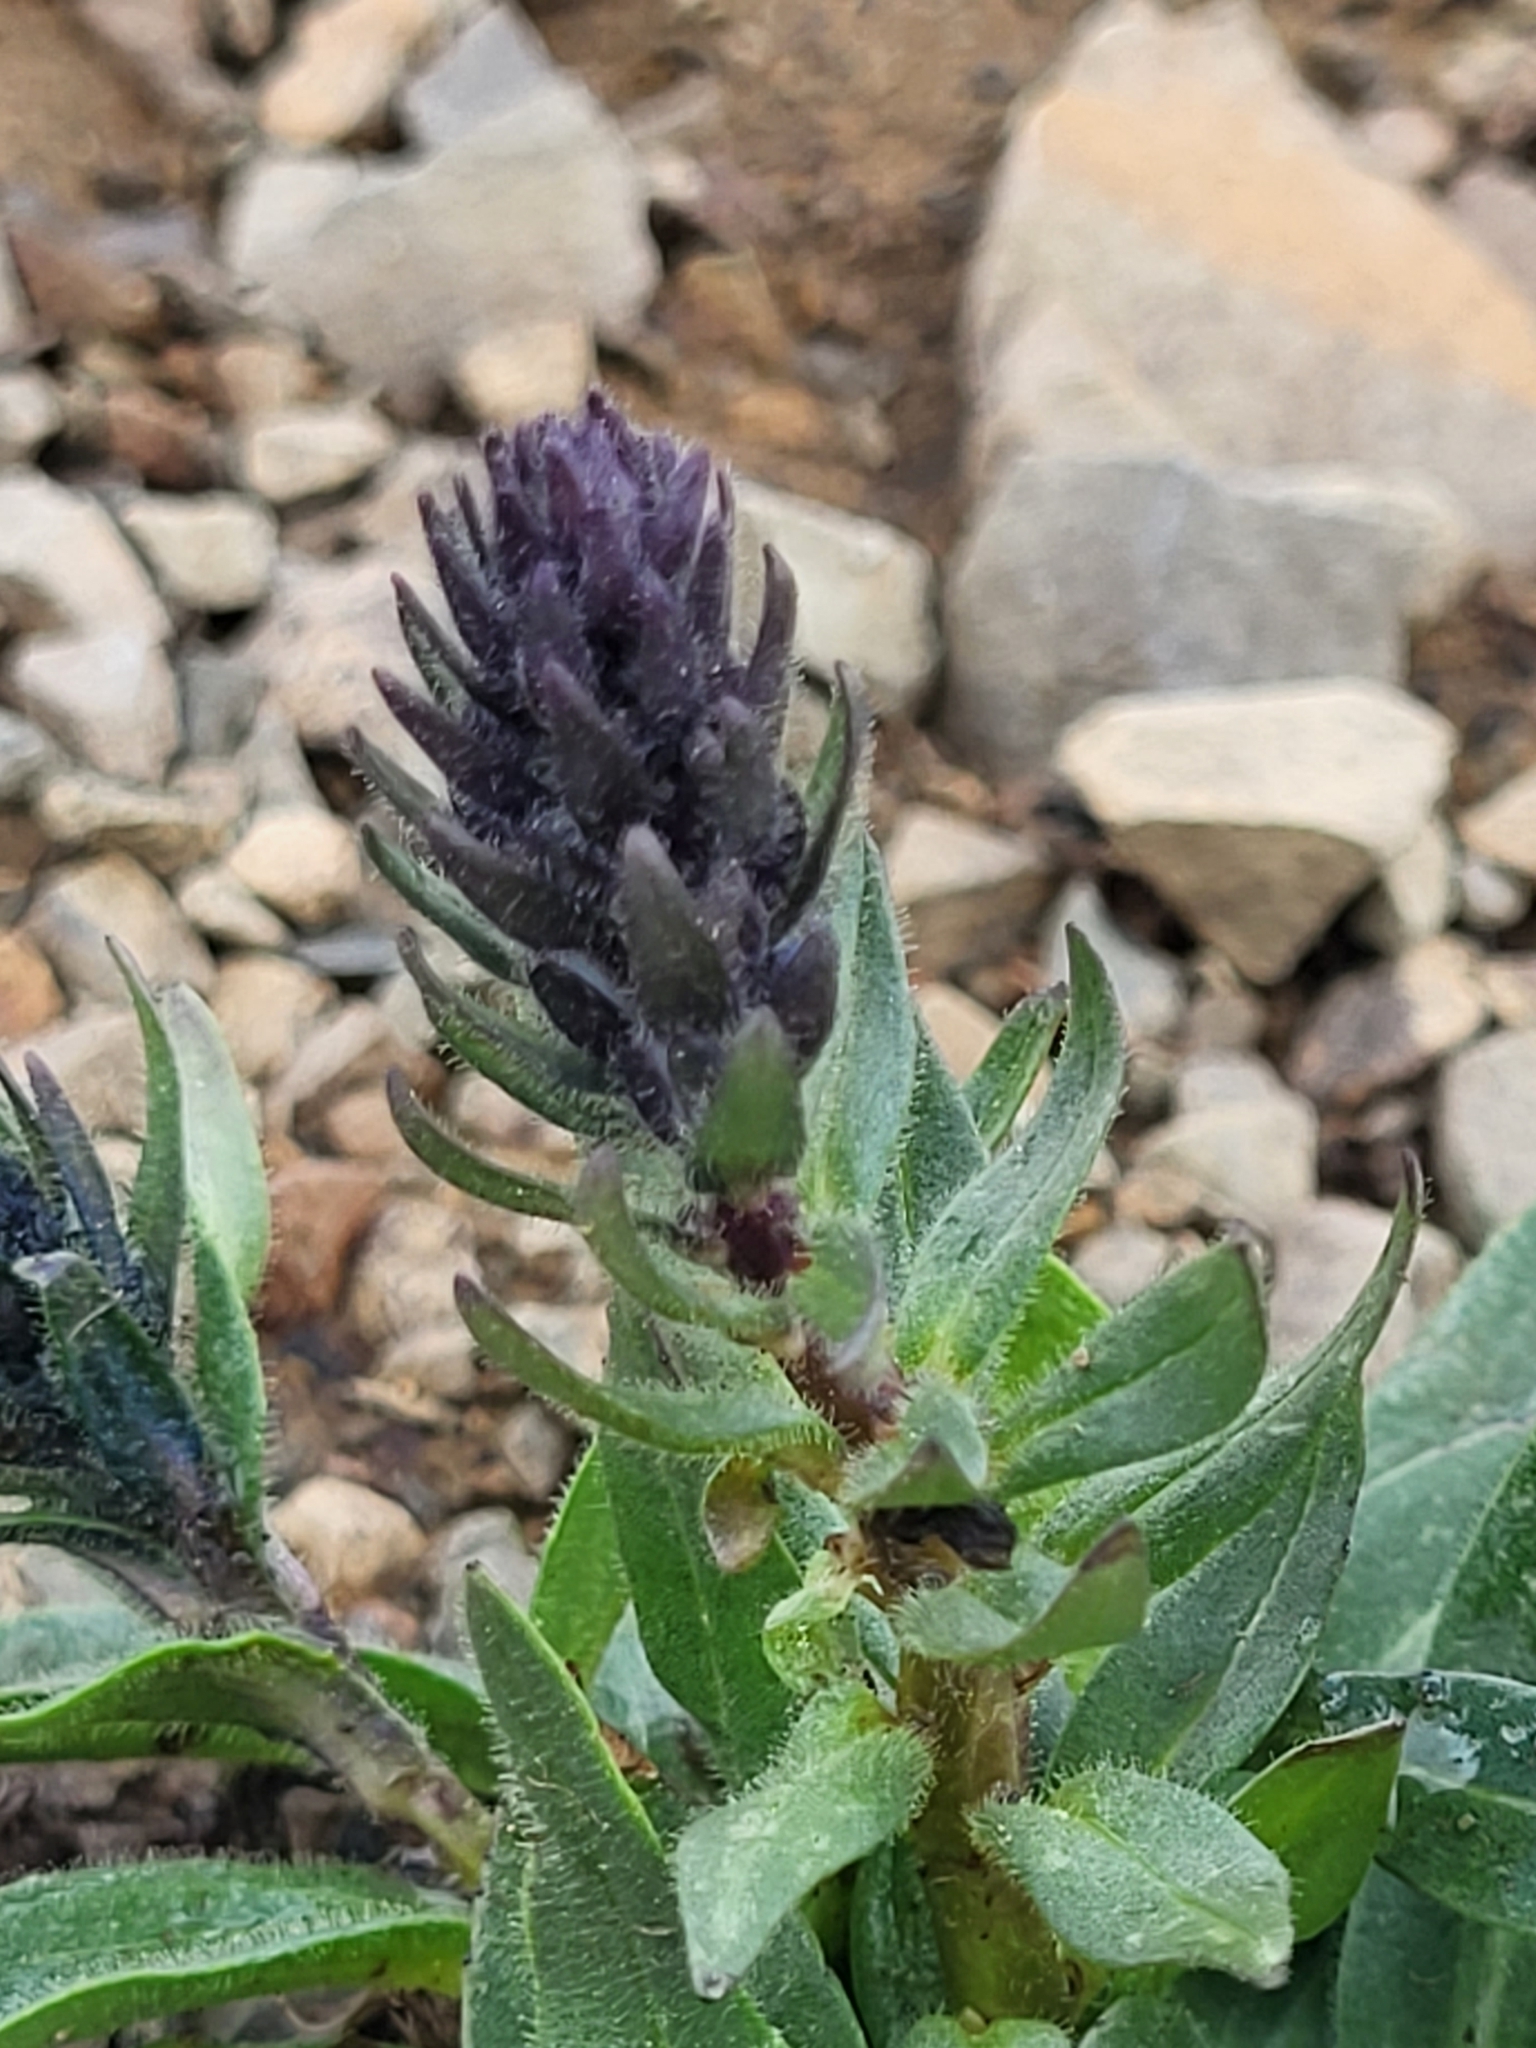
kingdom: Plantae
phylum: Tracheophyta
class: Magnoliopsida
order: Lamiales
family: Plantaginaceae
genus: Veronica
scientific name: Veronica gentianoides
